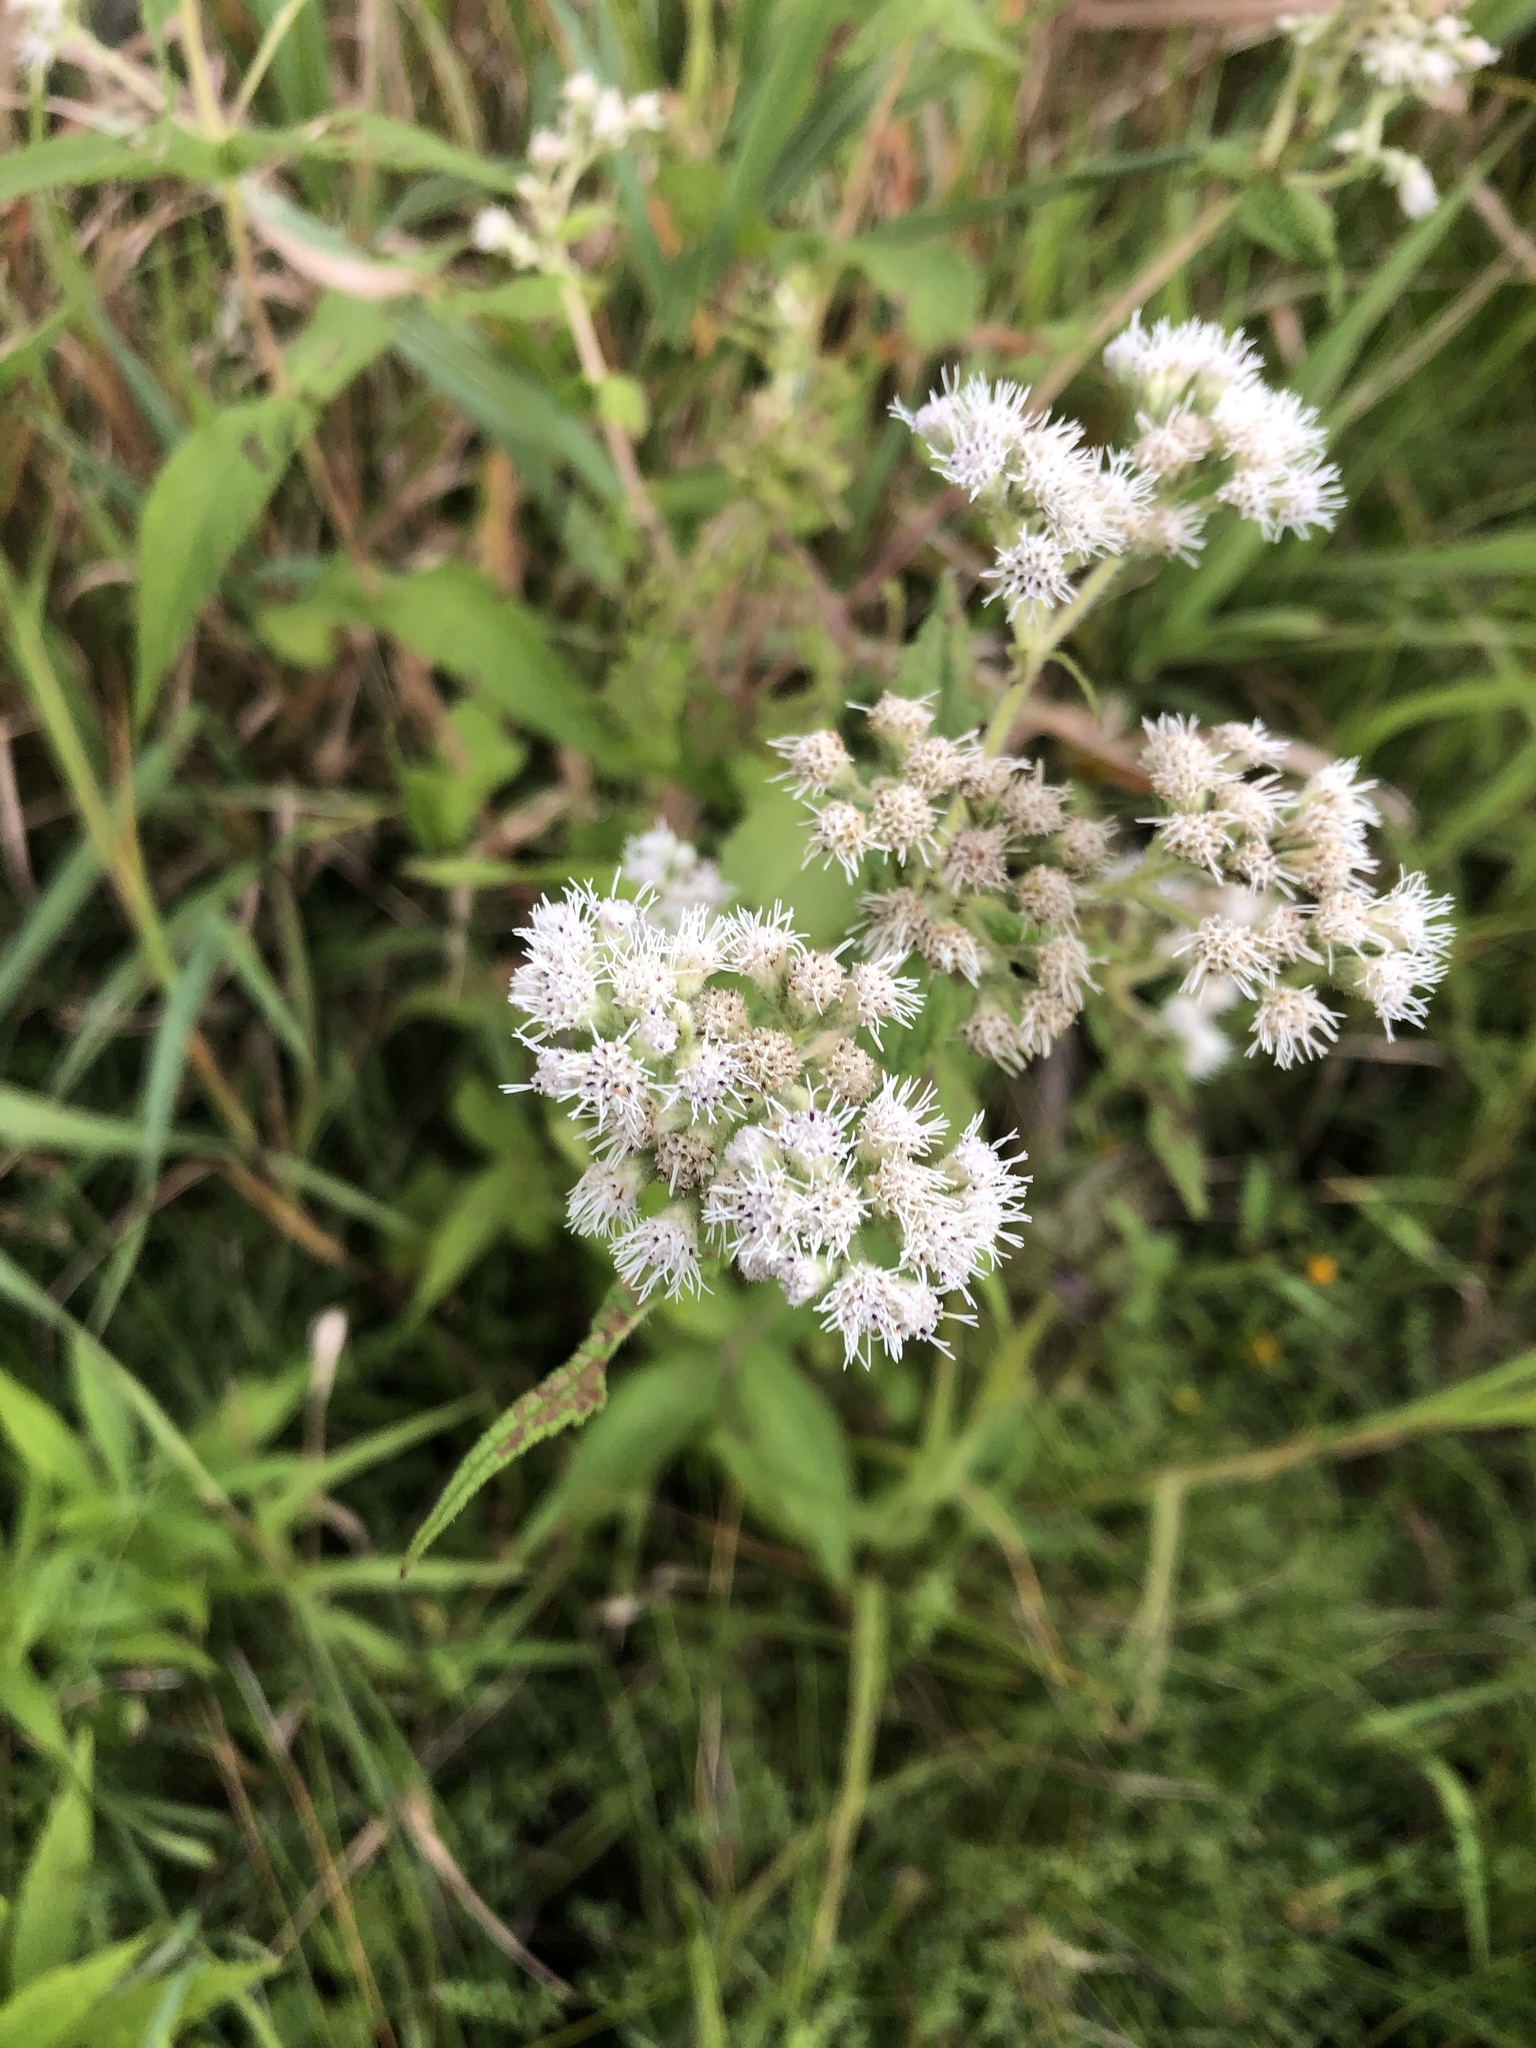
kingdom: Plantae
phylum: Tracheophyta
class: Magnoliopsida
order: Asterales
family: Asteraceae
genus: Eupatorium
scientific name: Eupatorium perfoliatum
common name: Boneset
